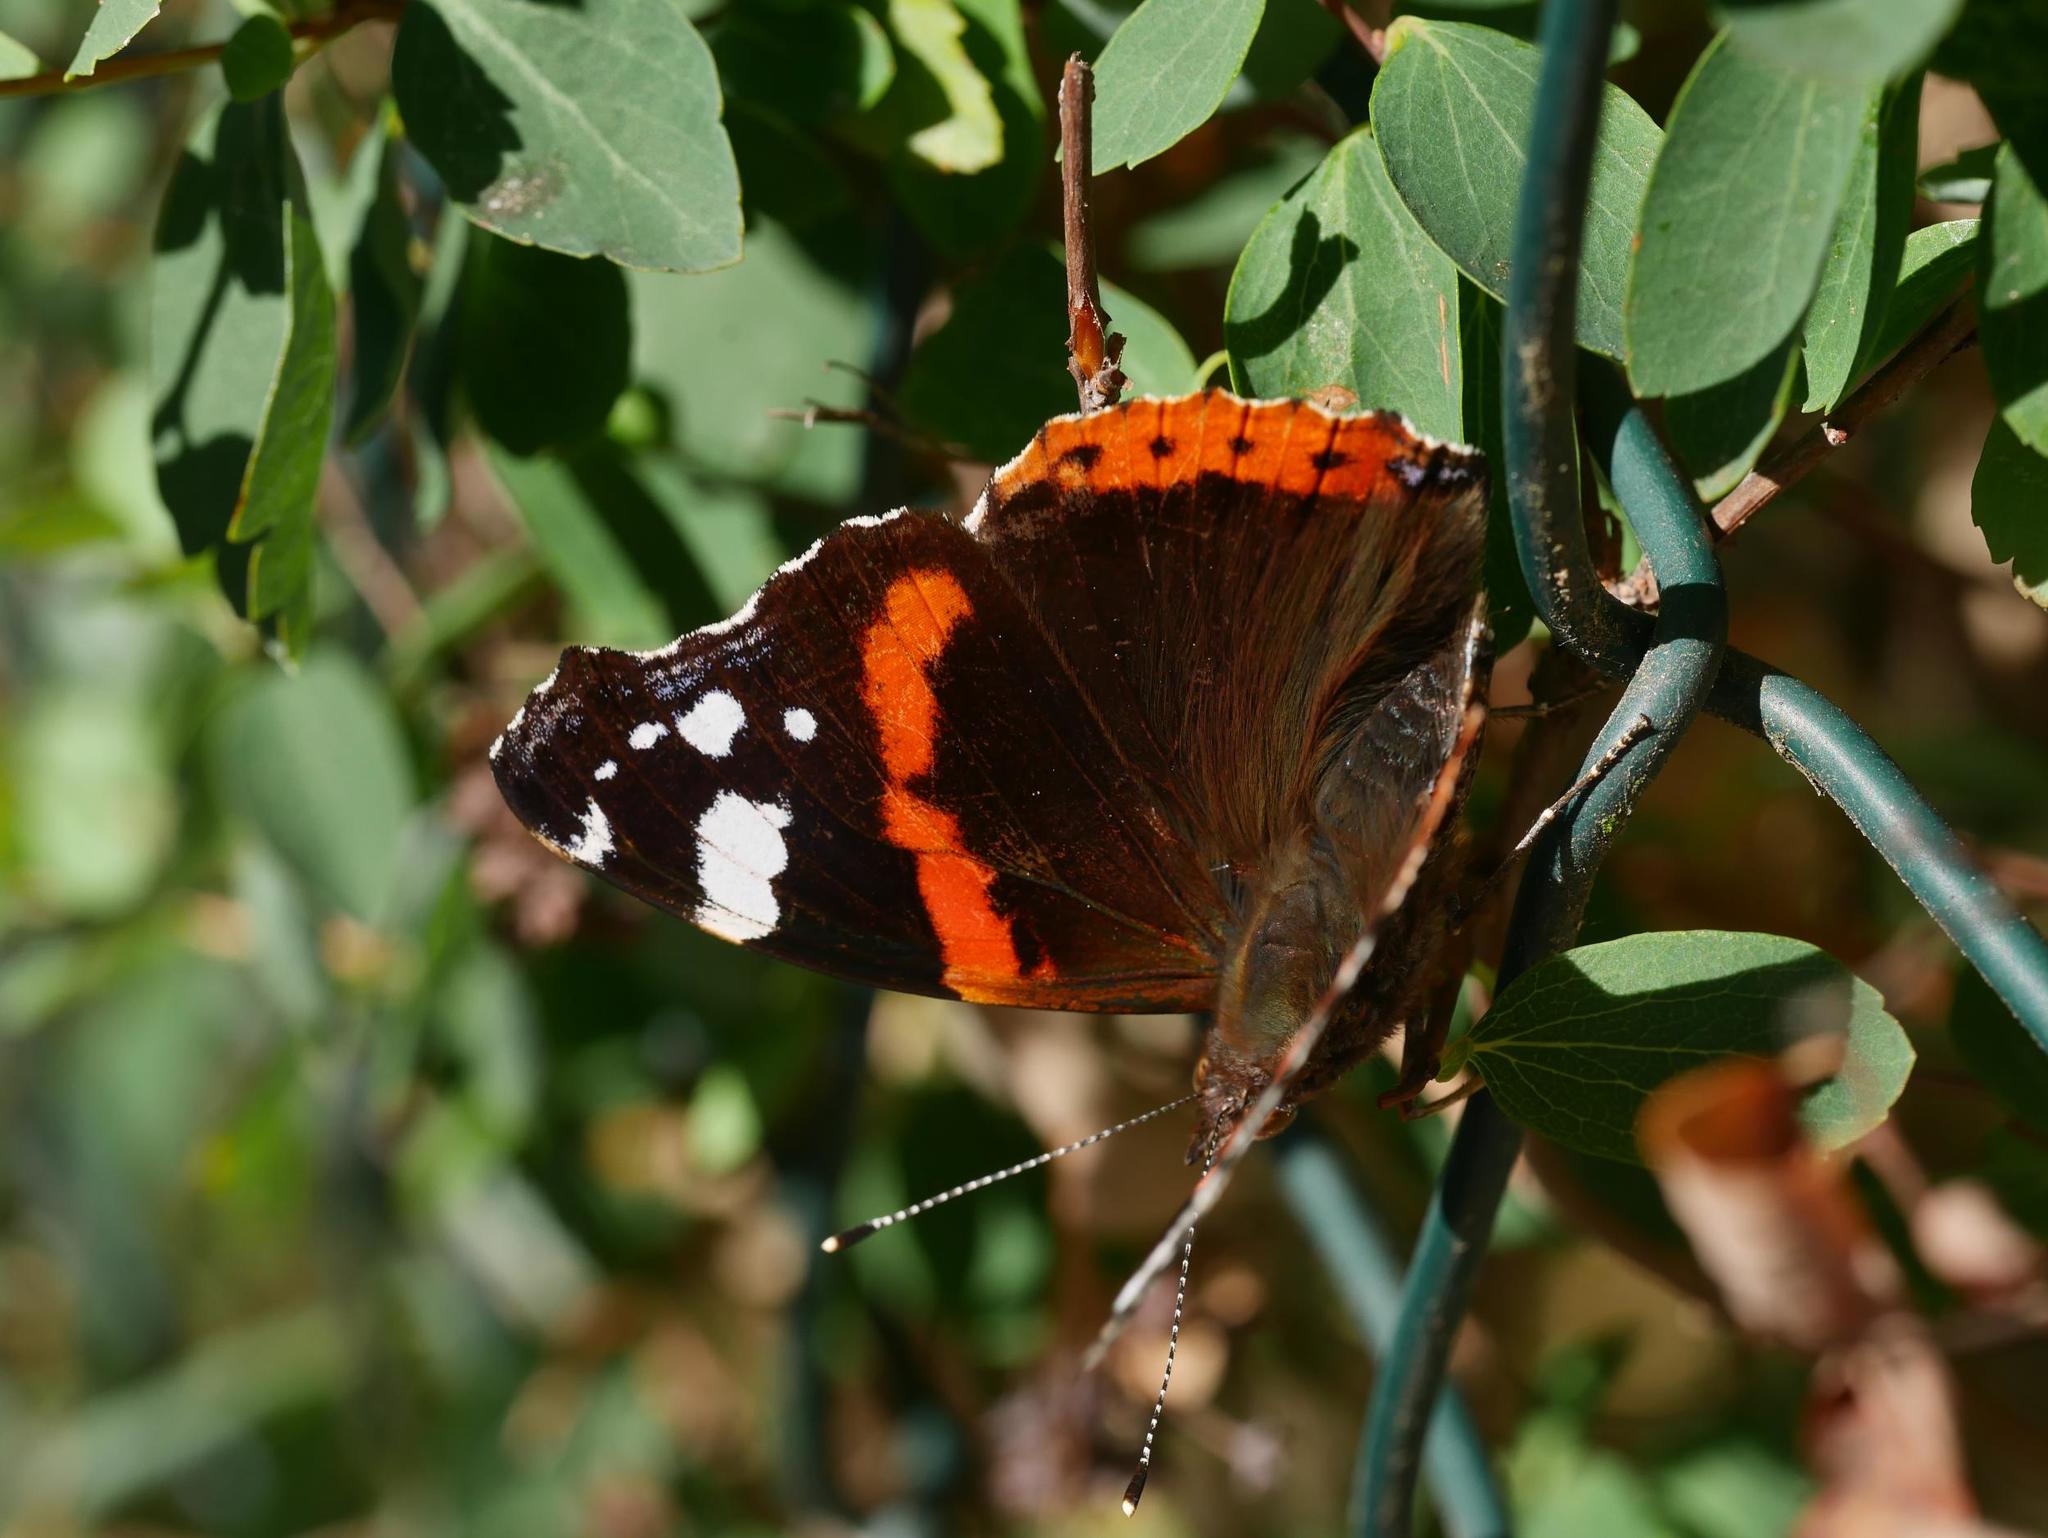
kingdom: Animalia
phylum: Arthropoda
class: Insecta
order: Lepidoptera
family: Nymphalidae
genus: Vanessa
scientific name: Vanessa atalanta
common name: Red admiral
